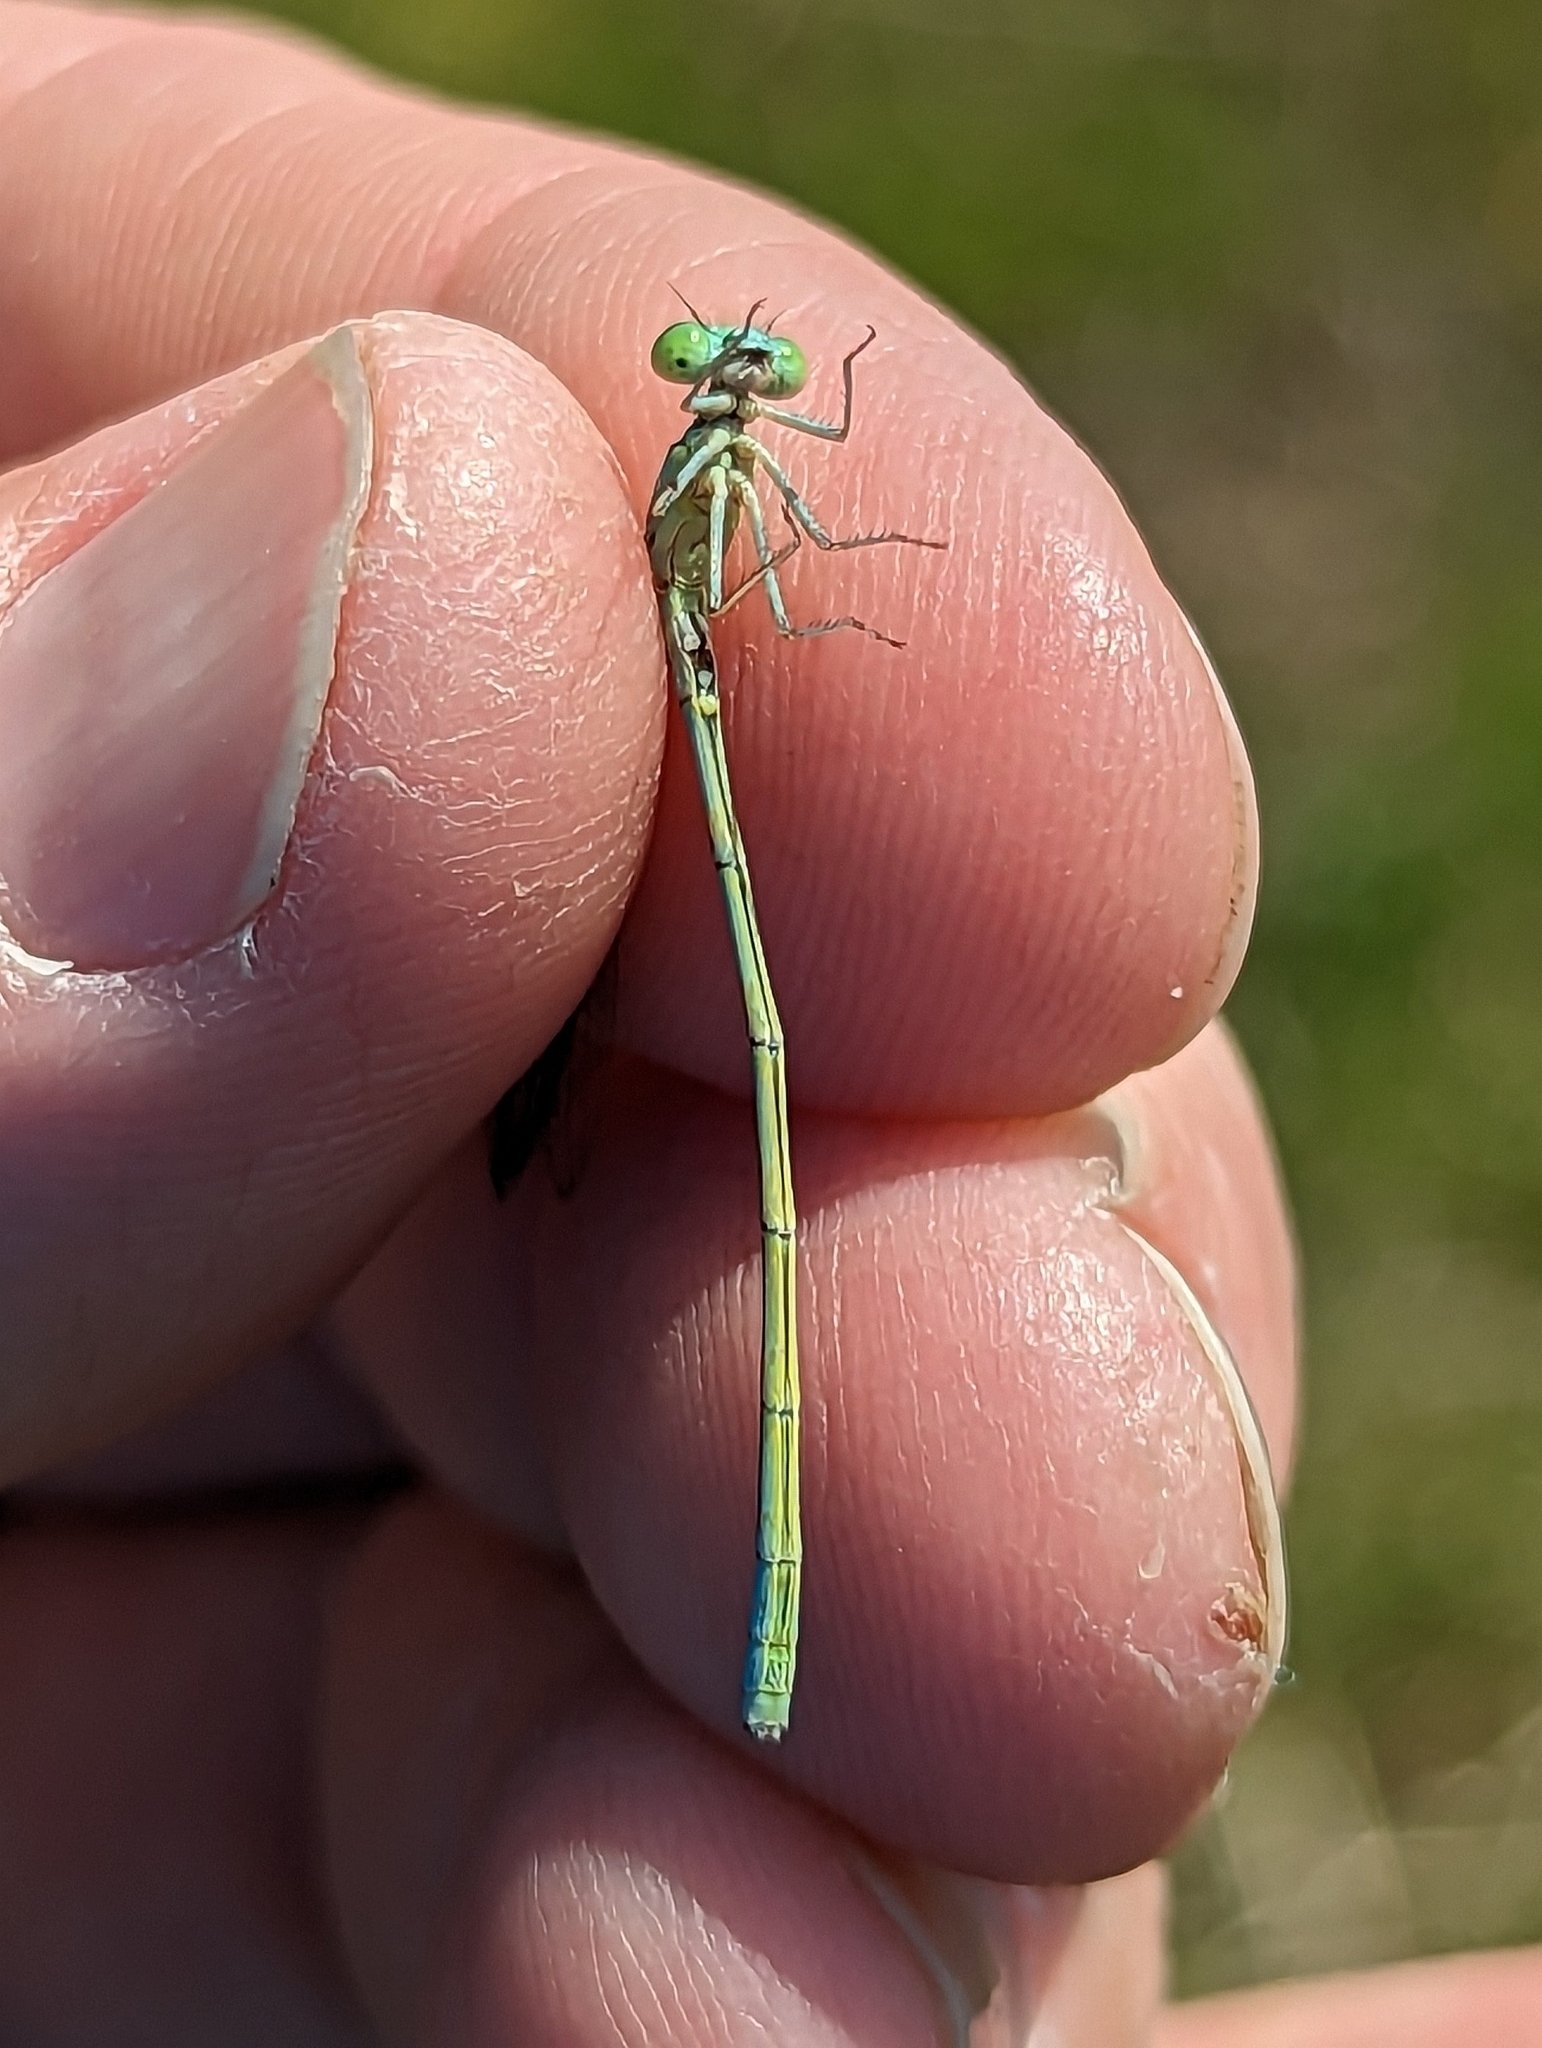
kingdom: Animalia
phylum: Arthropoda
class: Insecta
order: Odonata
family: Coenagrionidae
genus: Coenagrion
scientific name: Coenagrion resolutum
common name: Taiga bluet
